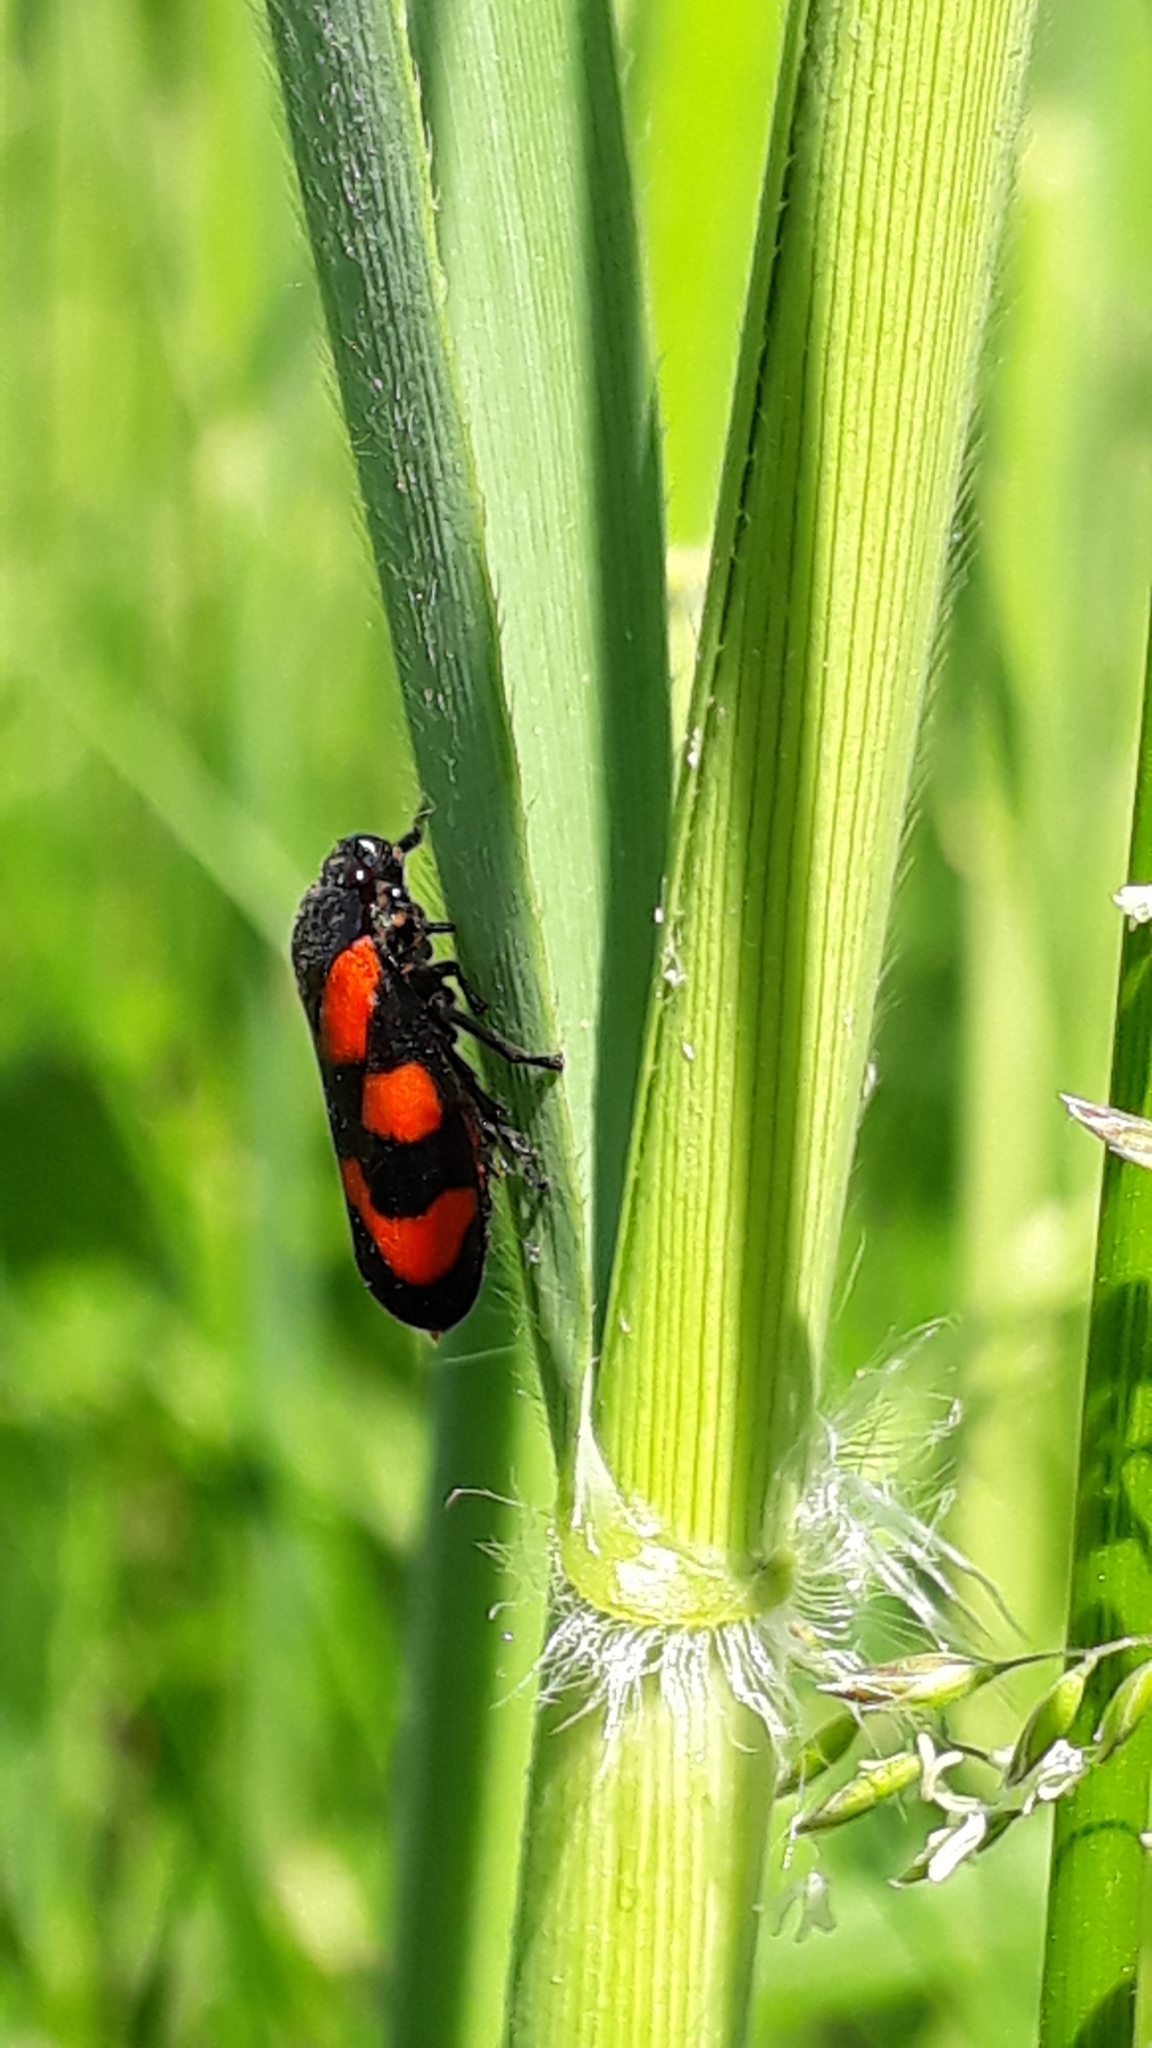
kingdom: Animalia
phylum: Arthropoda
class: Insecta
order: Hemiptera
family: Cercopidae
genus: Cercopis
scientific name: Cercopis vulnerata
